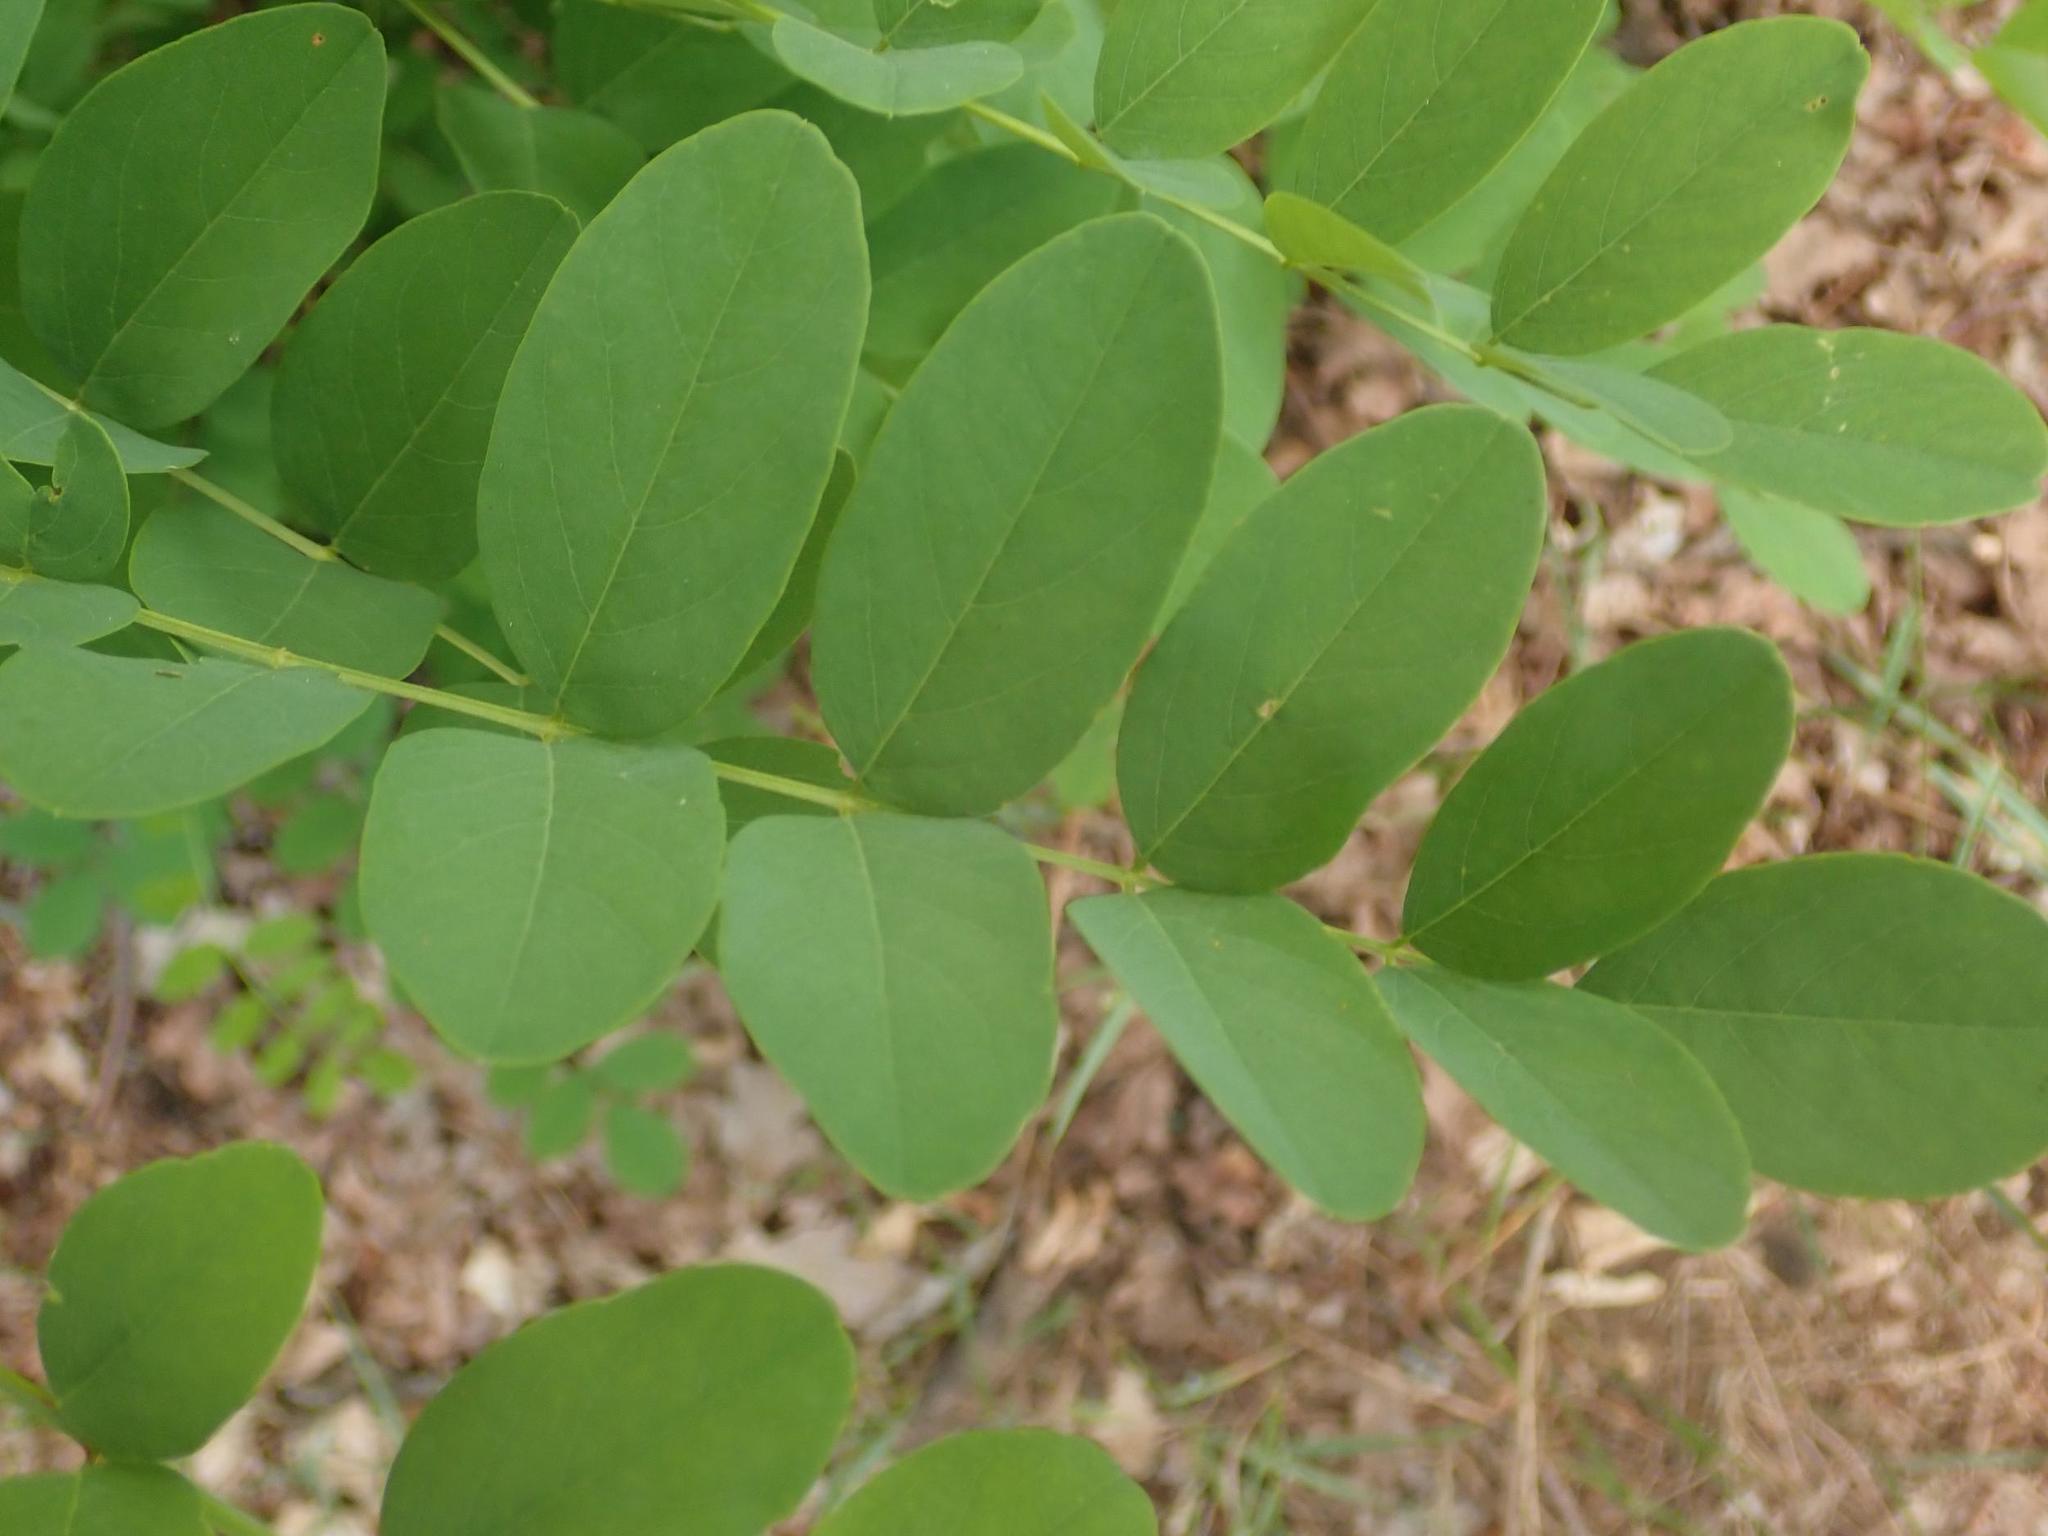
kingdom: Plantae
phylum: Tracheophyta
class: Magnoliopsida
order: Fabales
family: Fabaceae
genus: Robinia
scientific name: Robinia pseudoacacia
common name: Black locust
